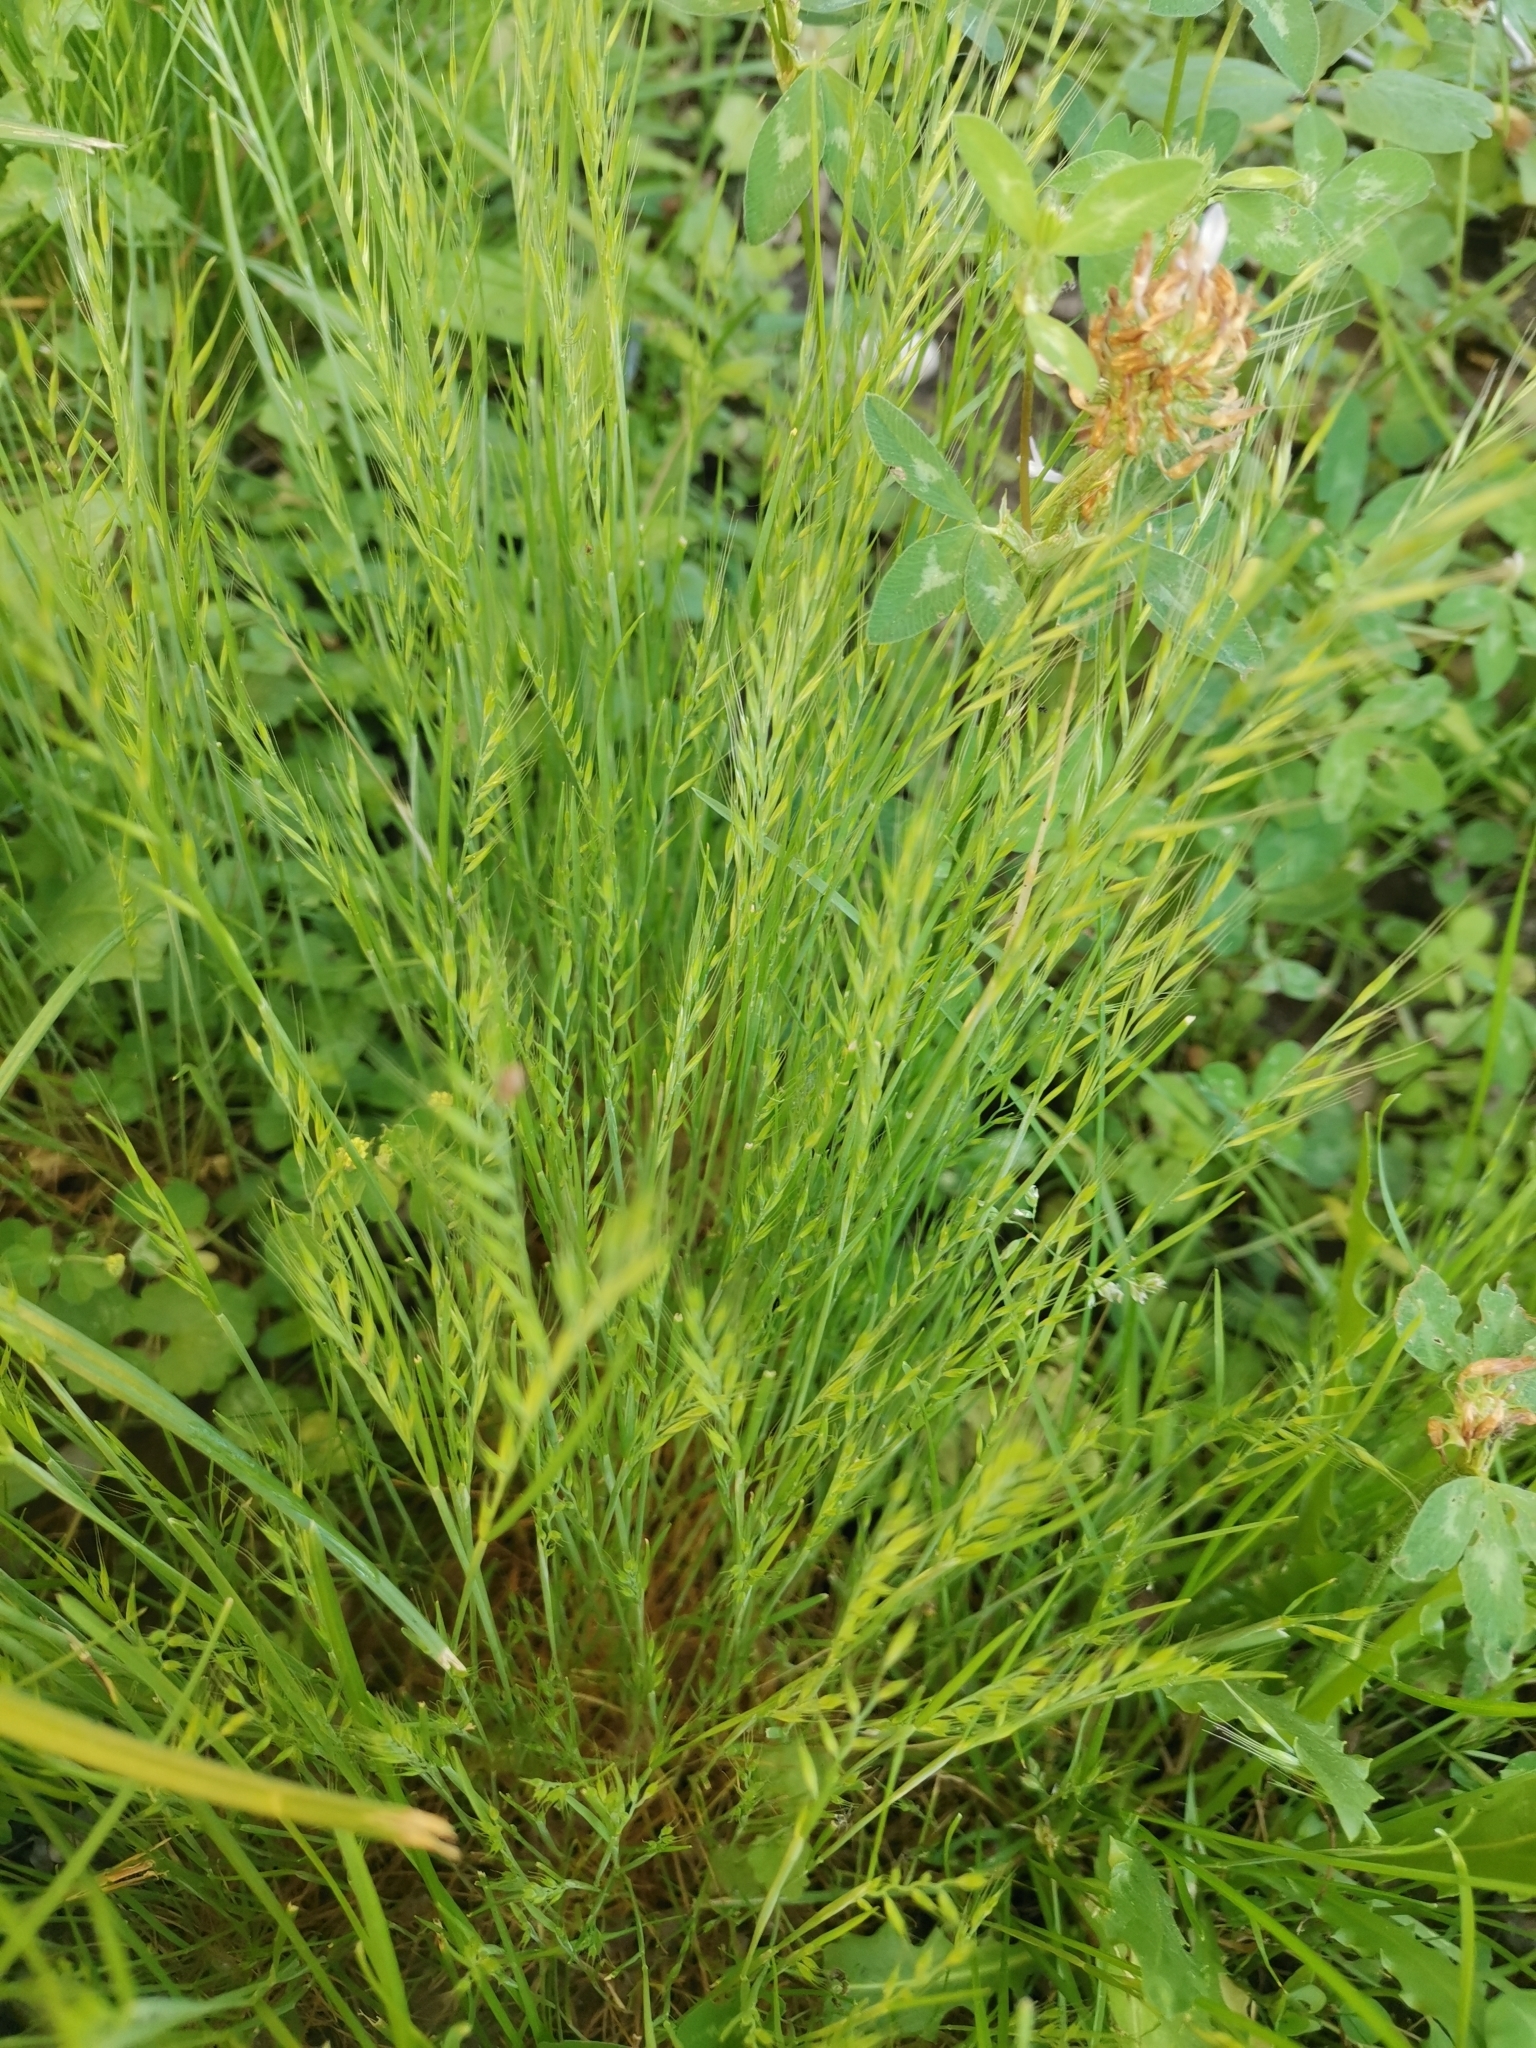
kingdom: Plantae
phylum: Tracheophyta
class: Liliopsida
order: Poales
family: Poaceae
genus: Festuca
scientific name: Festuca myuros
